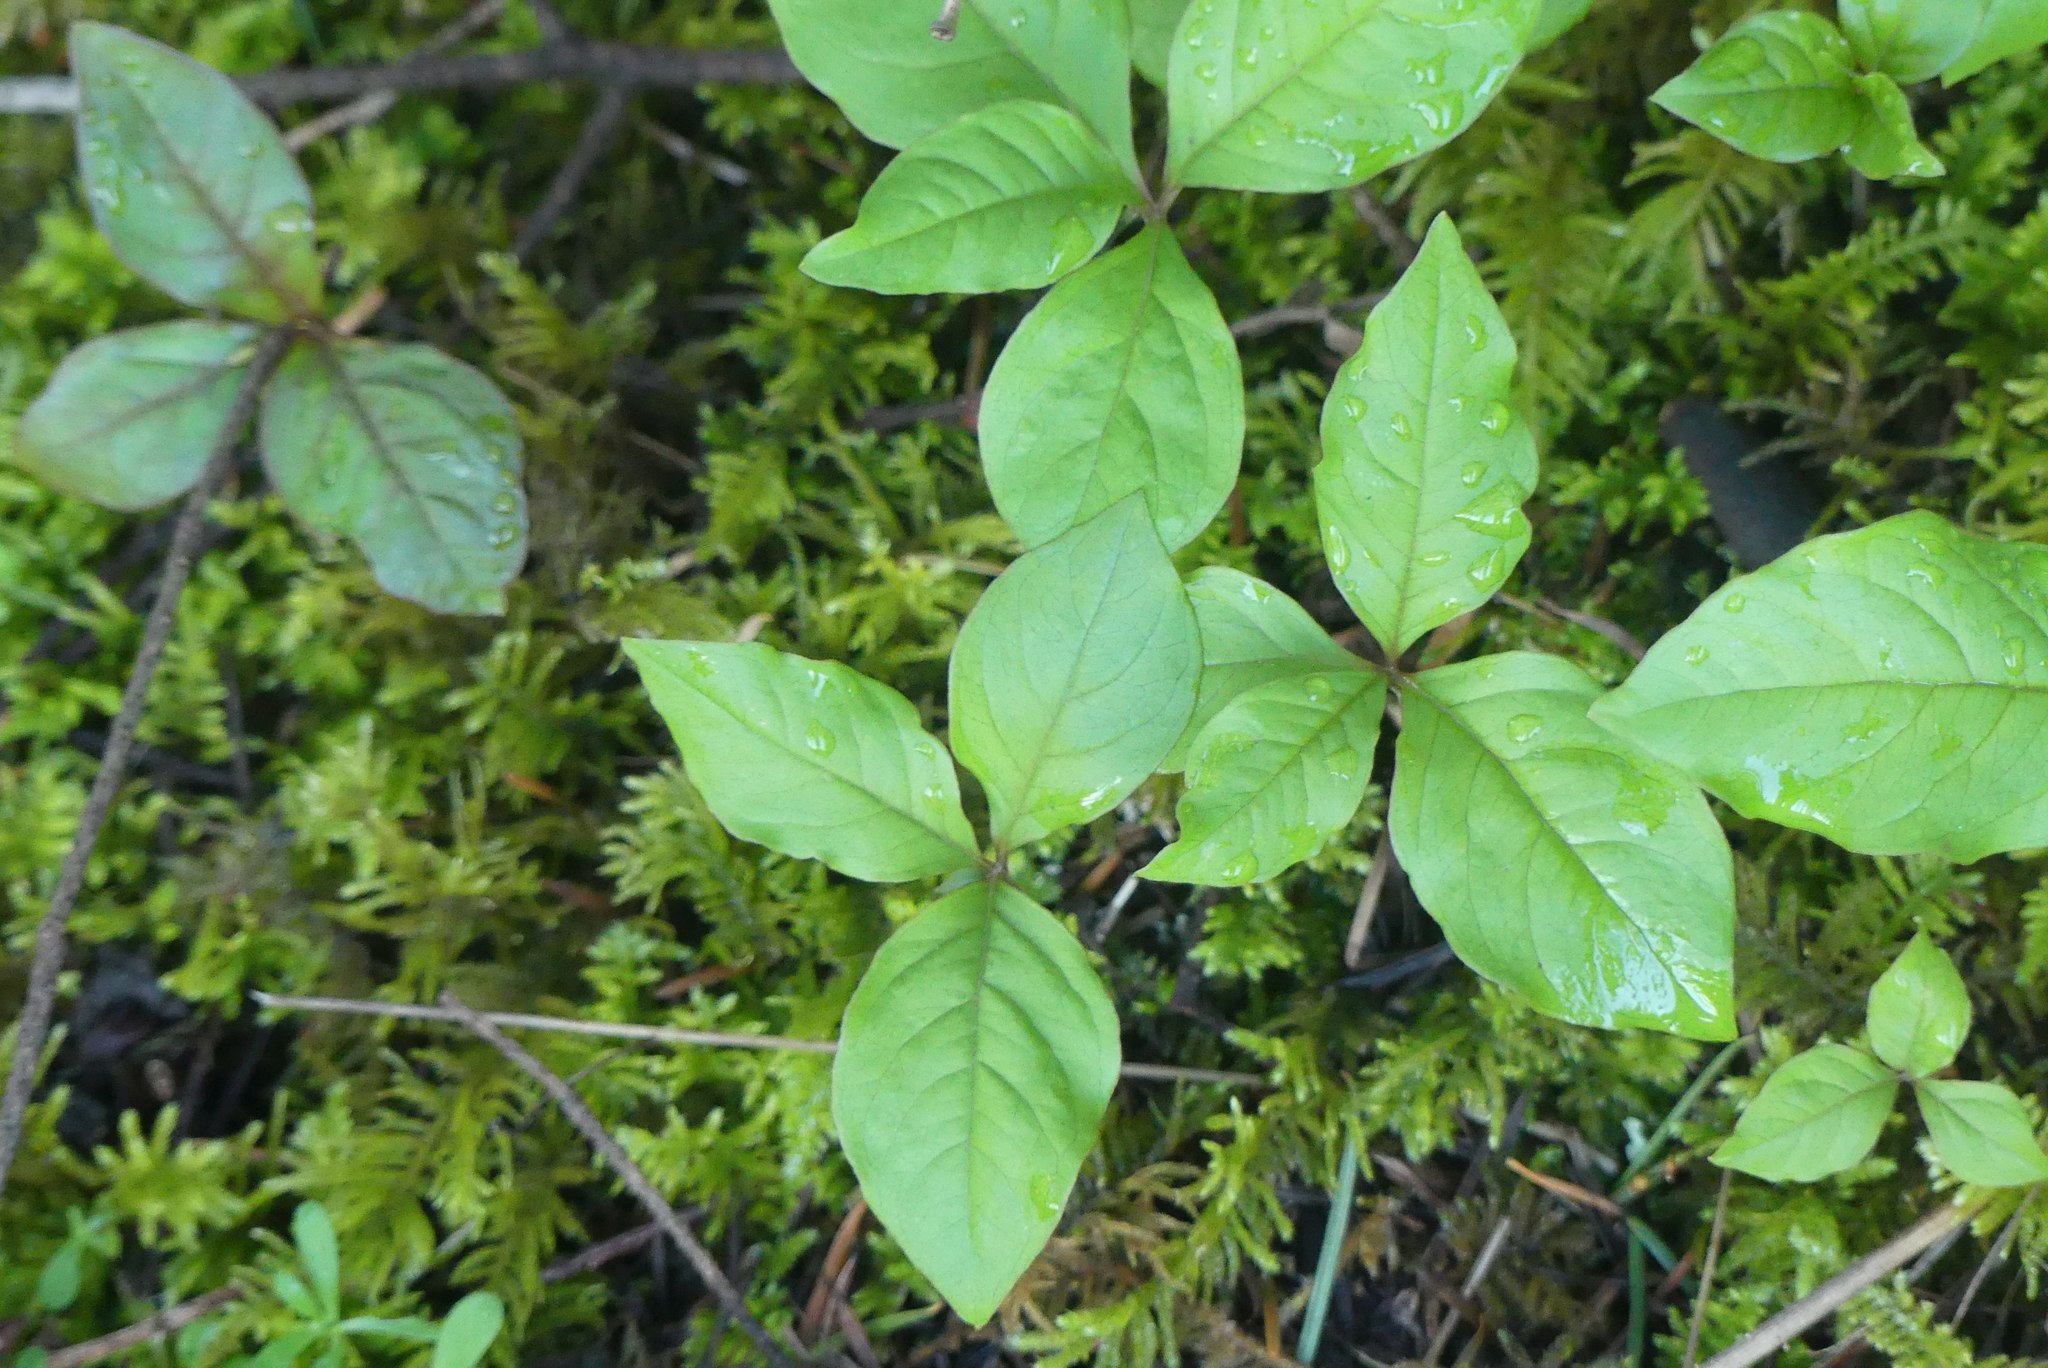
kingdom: Plantae
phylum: Tracheophyta
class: Magnoliopsida
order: Ericales
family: Primulaceae
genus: Lysimachia
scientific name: Lysimachia latifolia
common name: Pacific starflower
